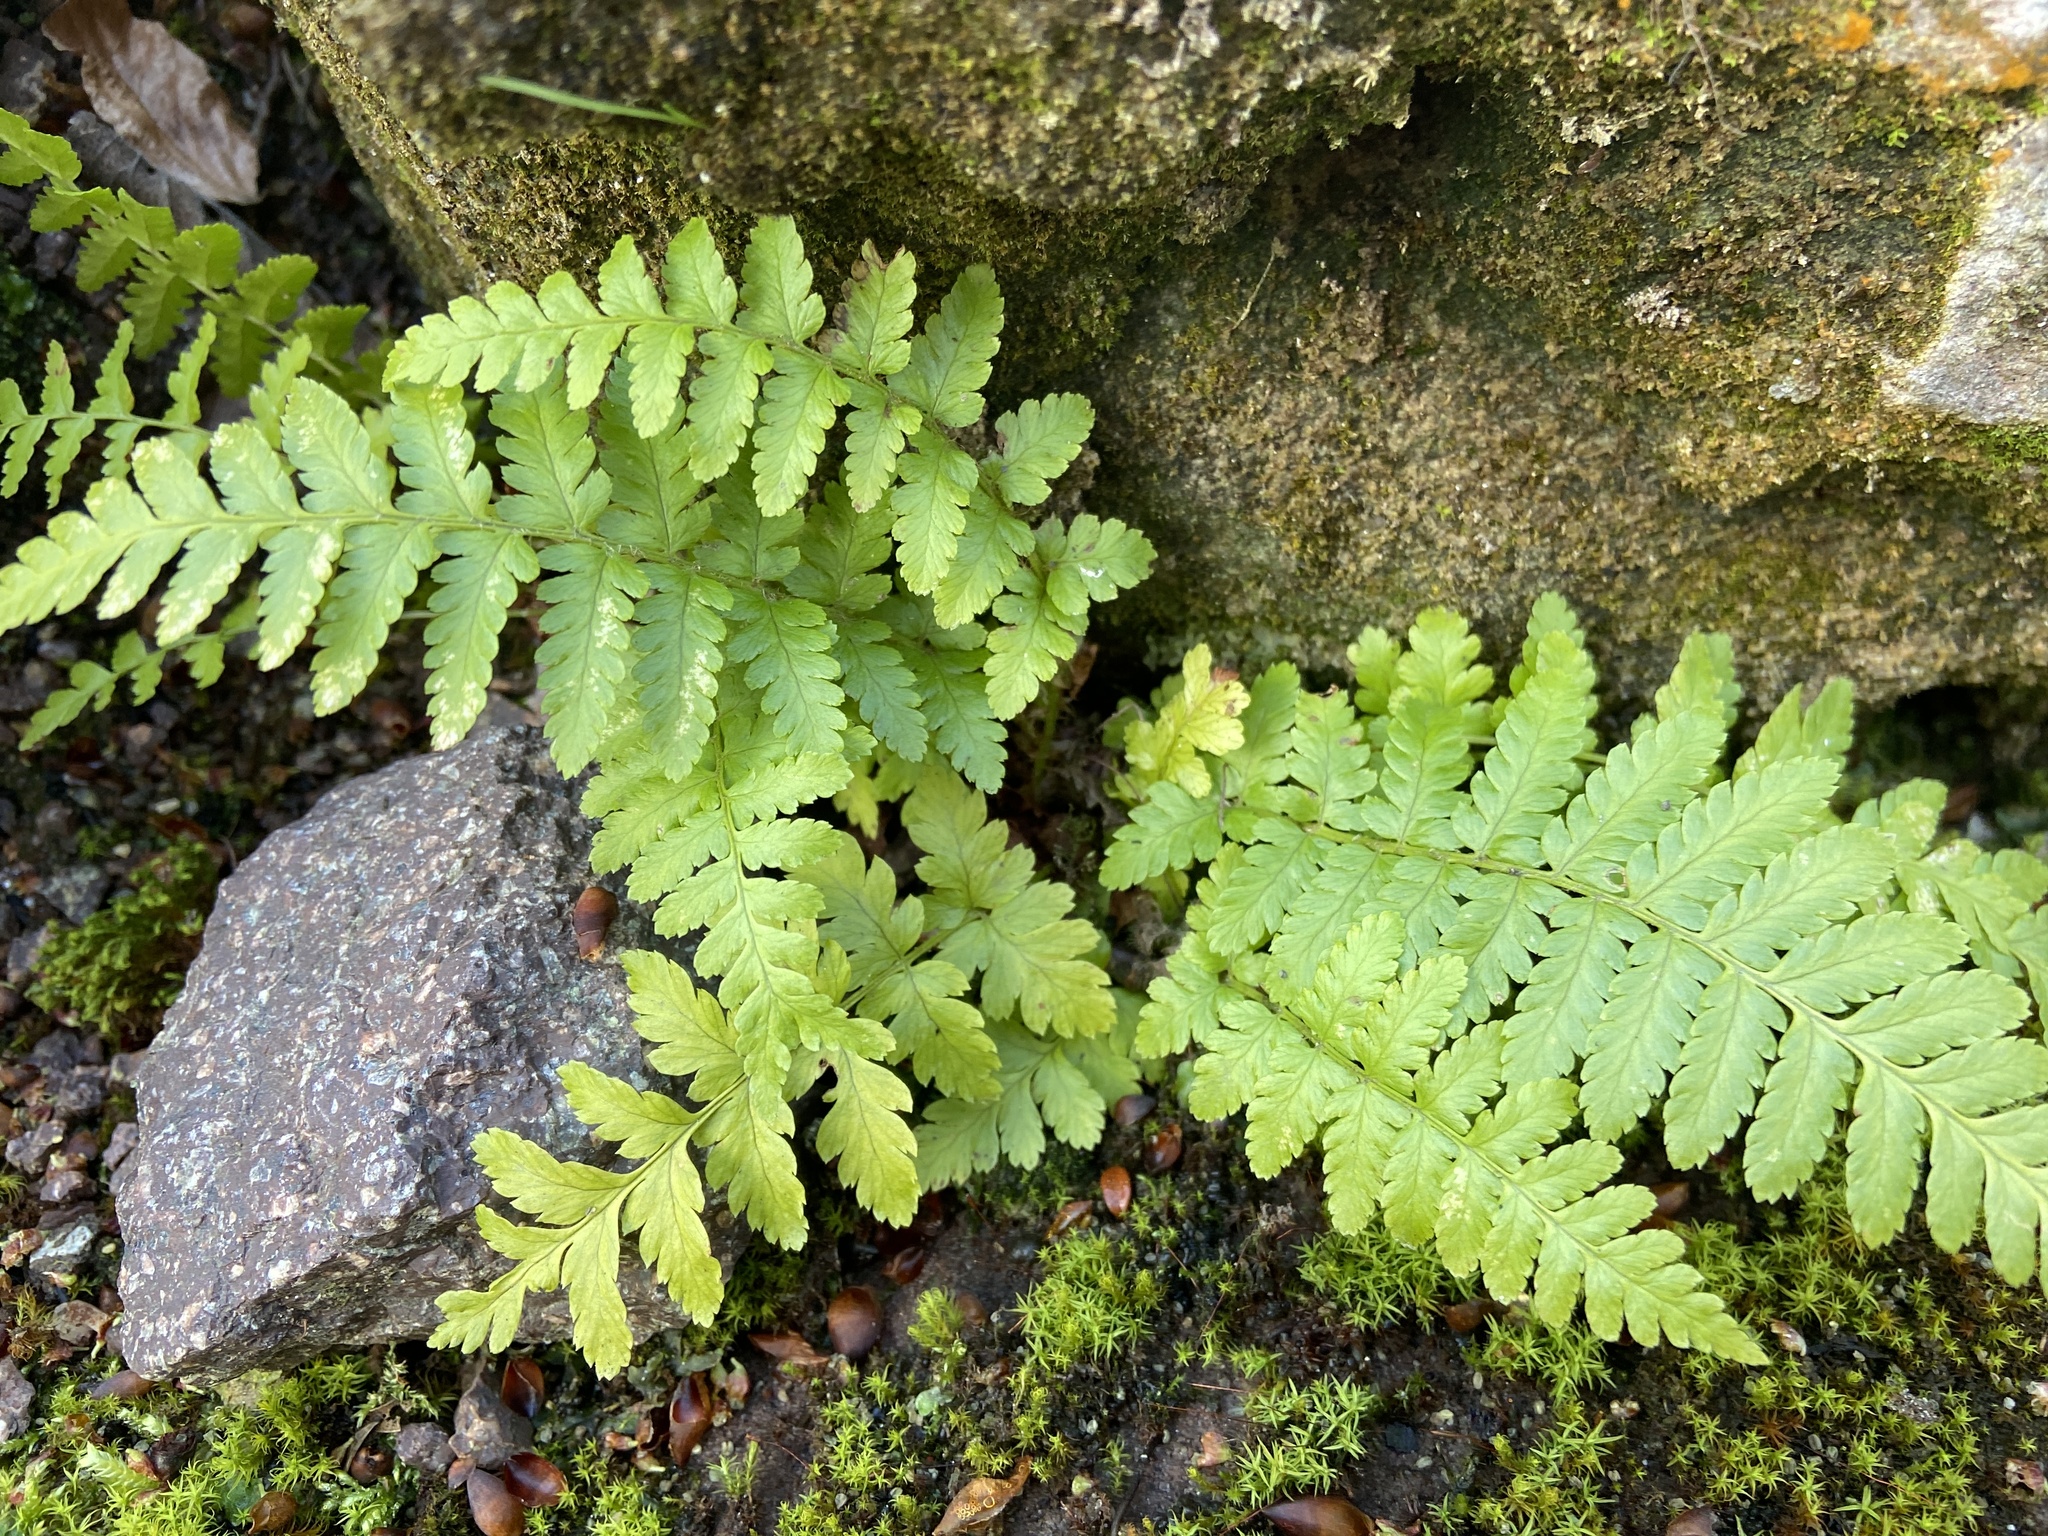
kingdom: Plantae
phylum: Tracheophyta
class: Polypodiopsida
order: Polypodiales
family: Dryopteridaceae
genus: Dryopteris
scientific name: Dryopteris filix-mas
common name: Male fern
